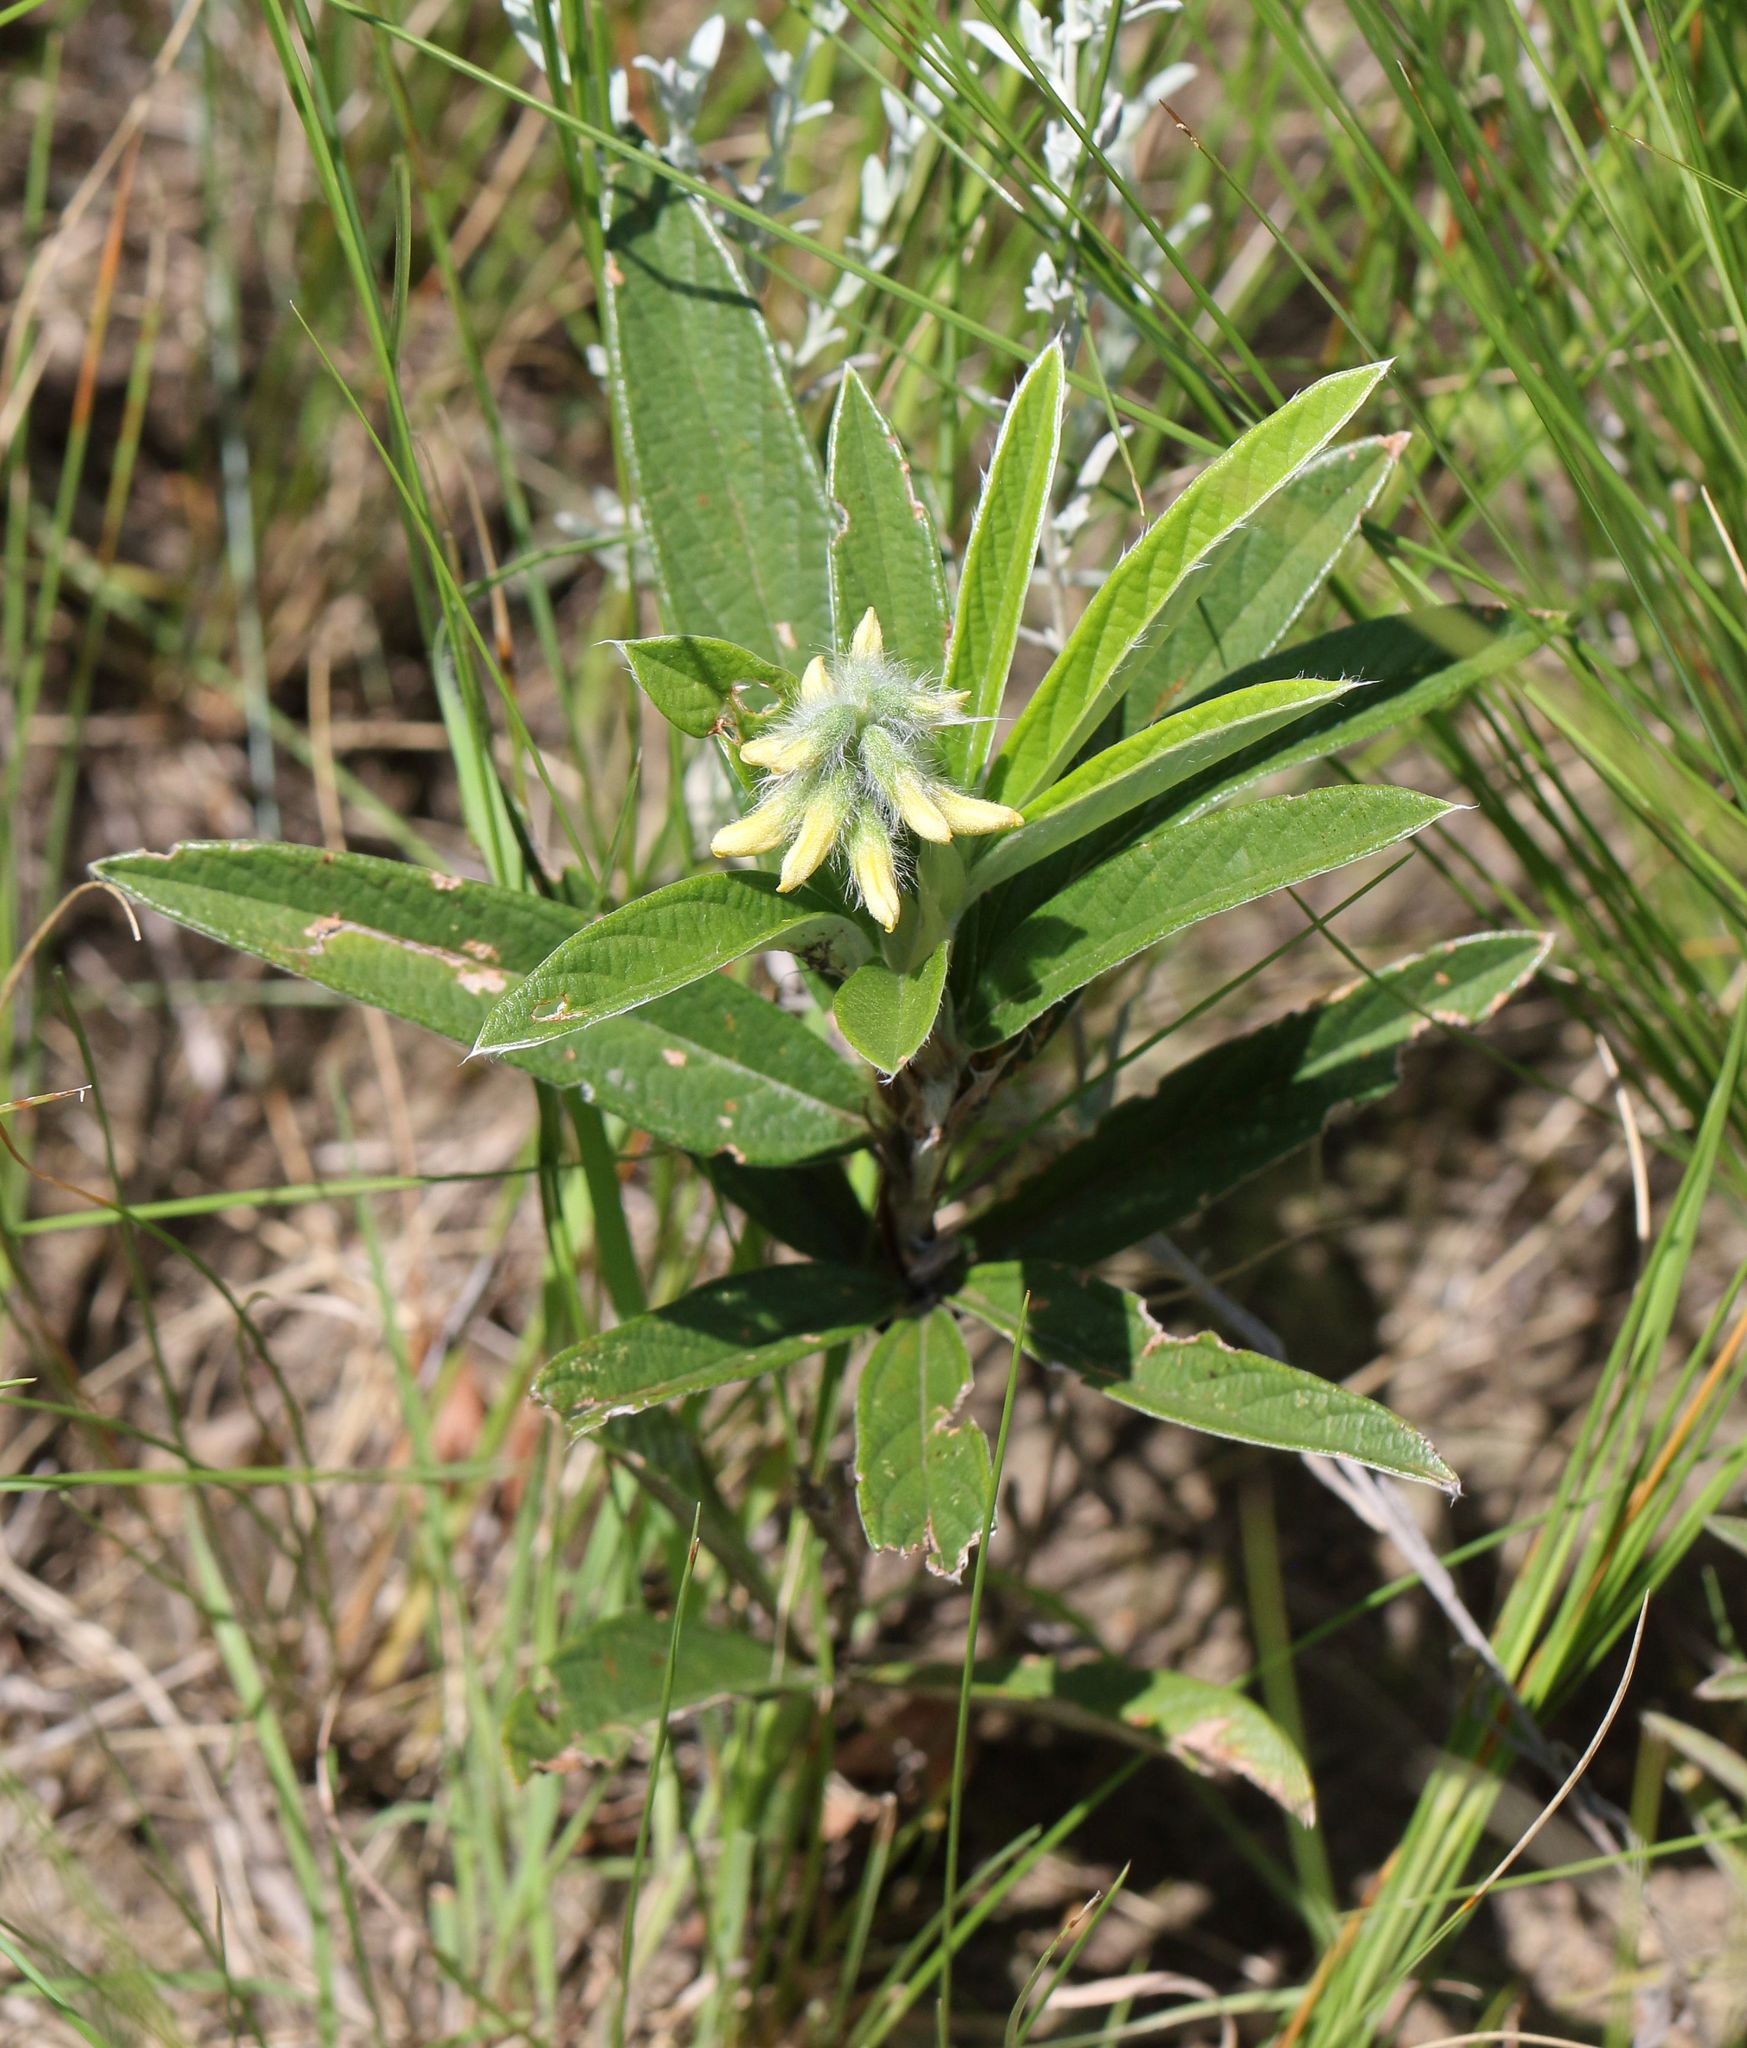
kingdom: Plantae
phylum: Tracheophyta
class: Magnoliopsida
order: Fabales
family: Fabaceae
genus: Eriosema
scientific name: Eriosema salignum
